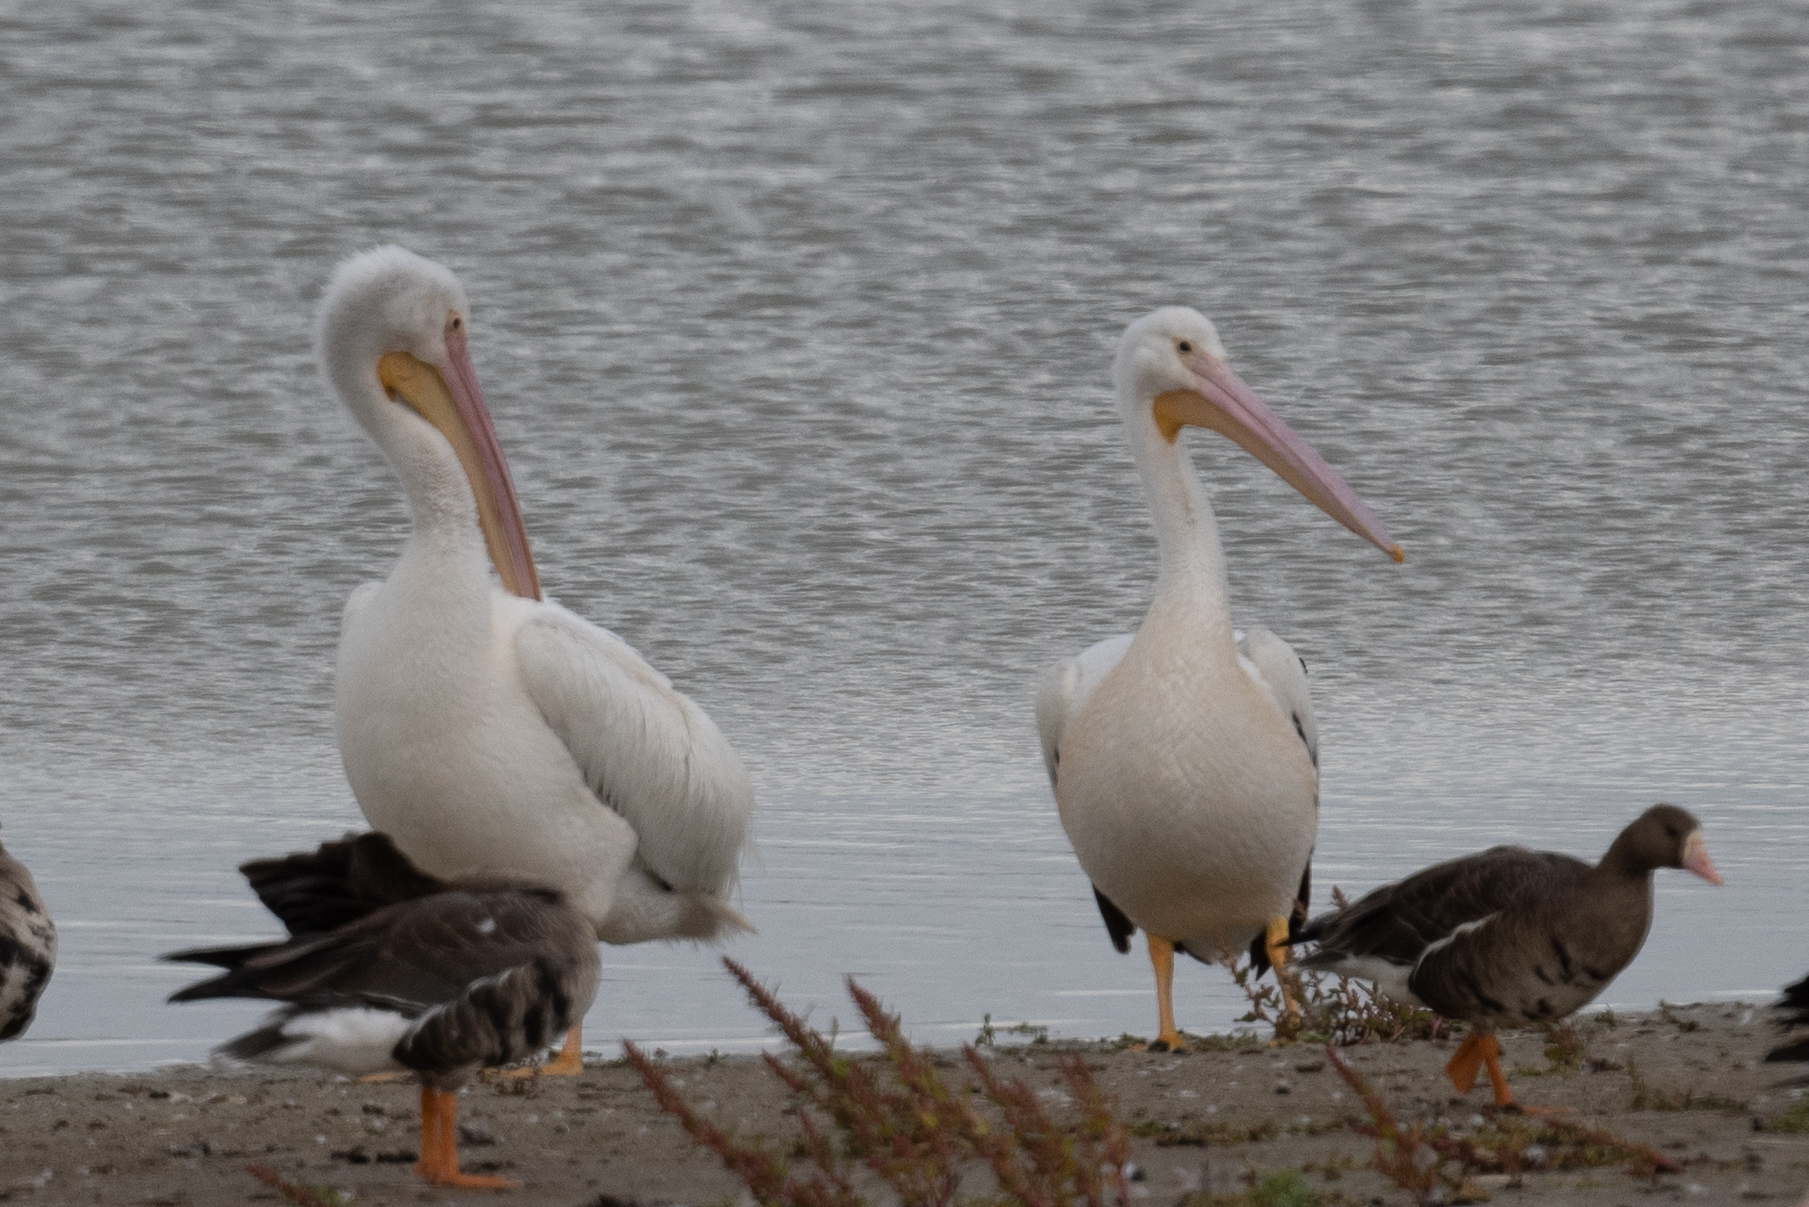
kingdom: Animalia
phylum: Chordata
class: Aves
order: Pelecaniformes
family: Pelecanidae
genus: Pelecanus
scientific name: Pelecanus erythrorhynchos
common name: American white pelican
